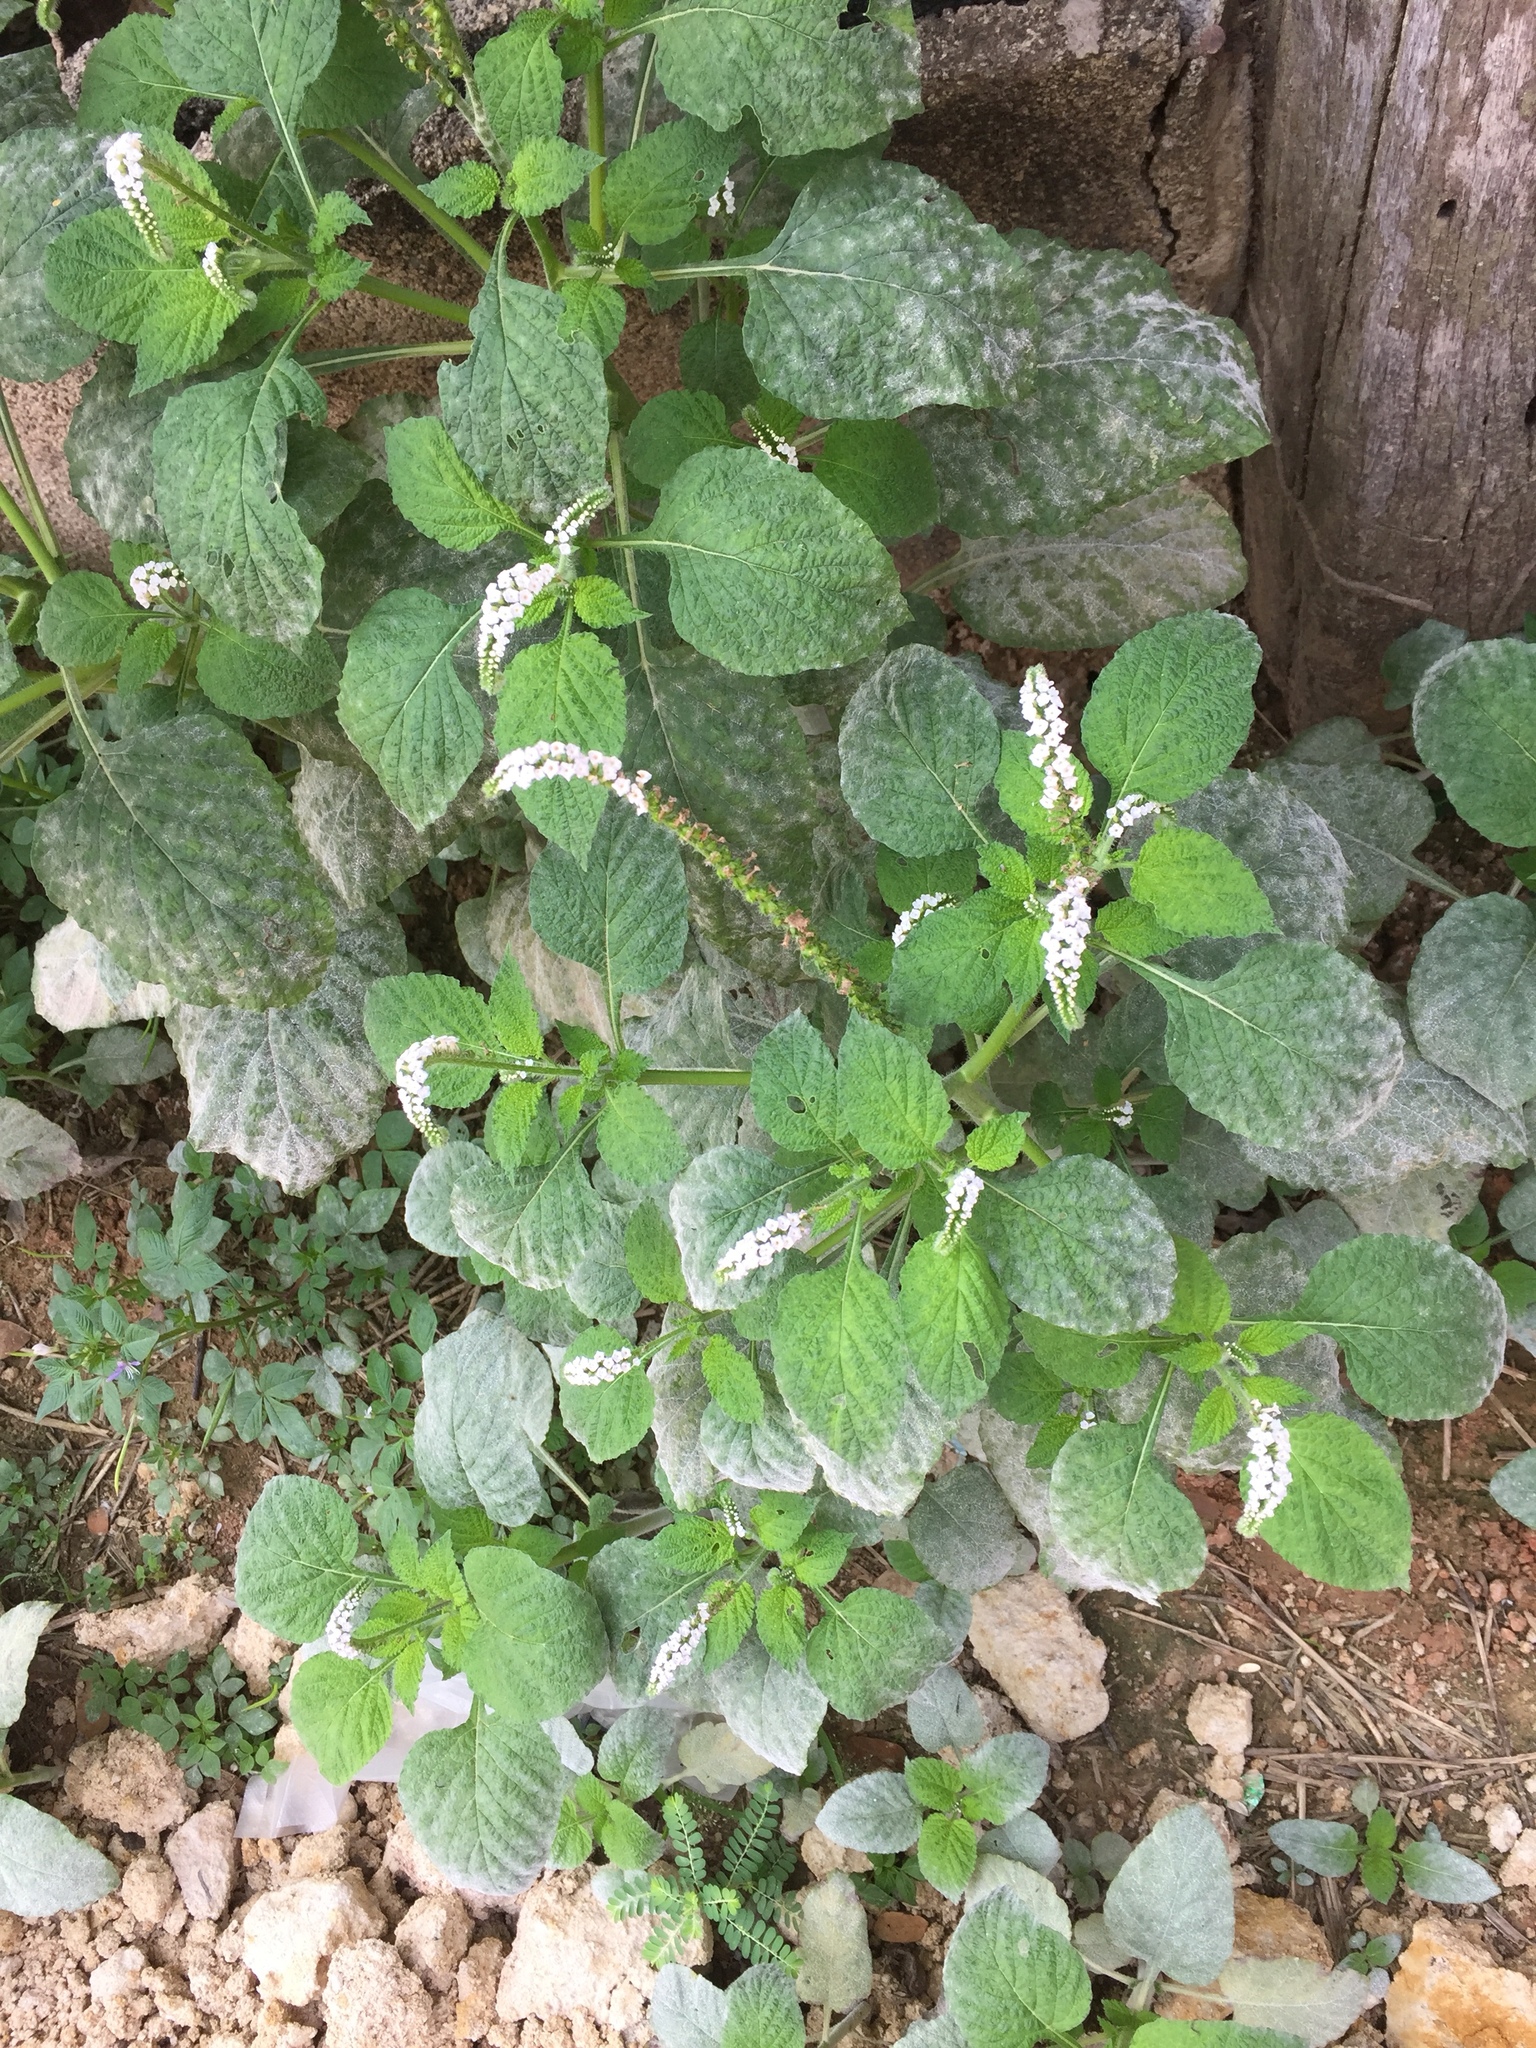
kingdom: Plantae
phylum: Tracheophyta
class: Magnoliopsida
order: Boraginales
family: Heliotropiaceae
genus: Heliotropium
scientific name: Heliotropium indicum
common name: Indian heliotrope
